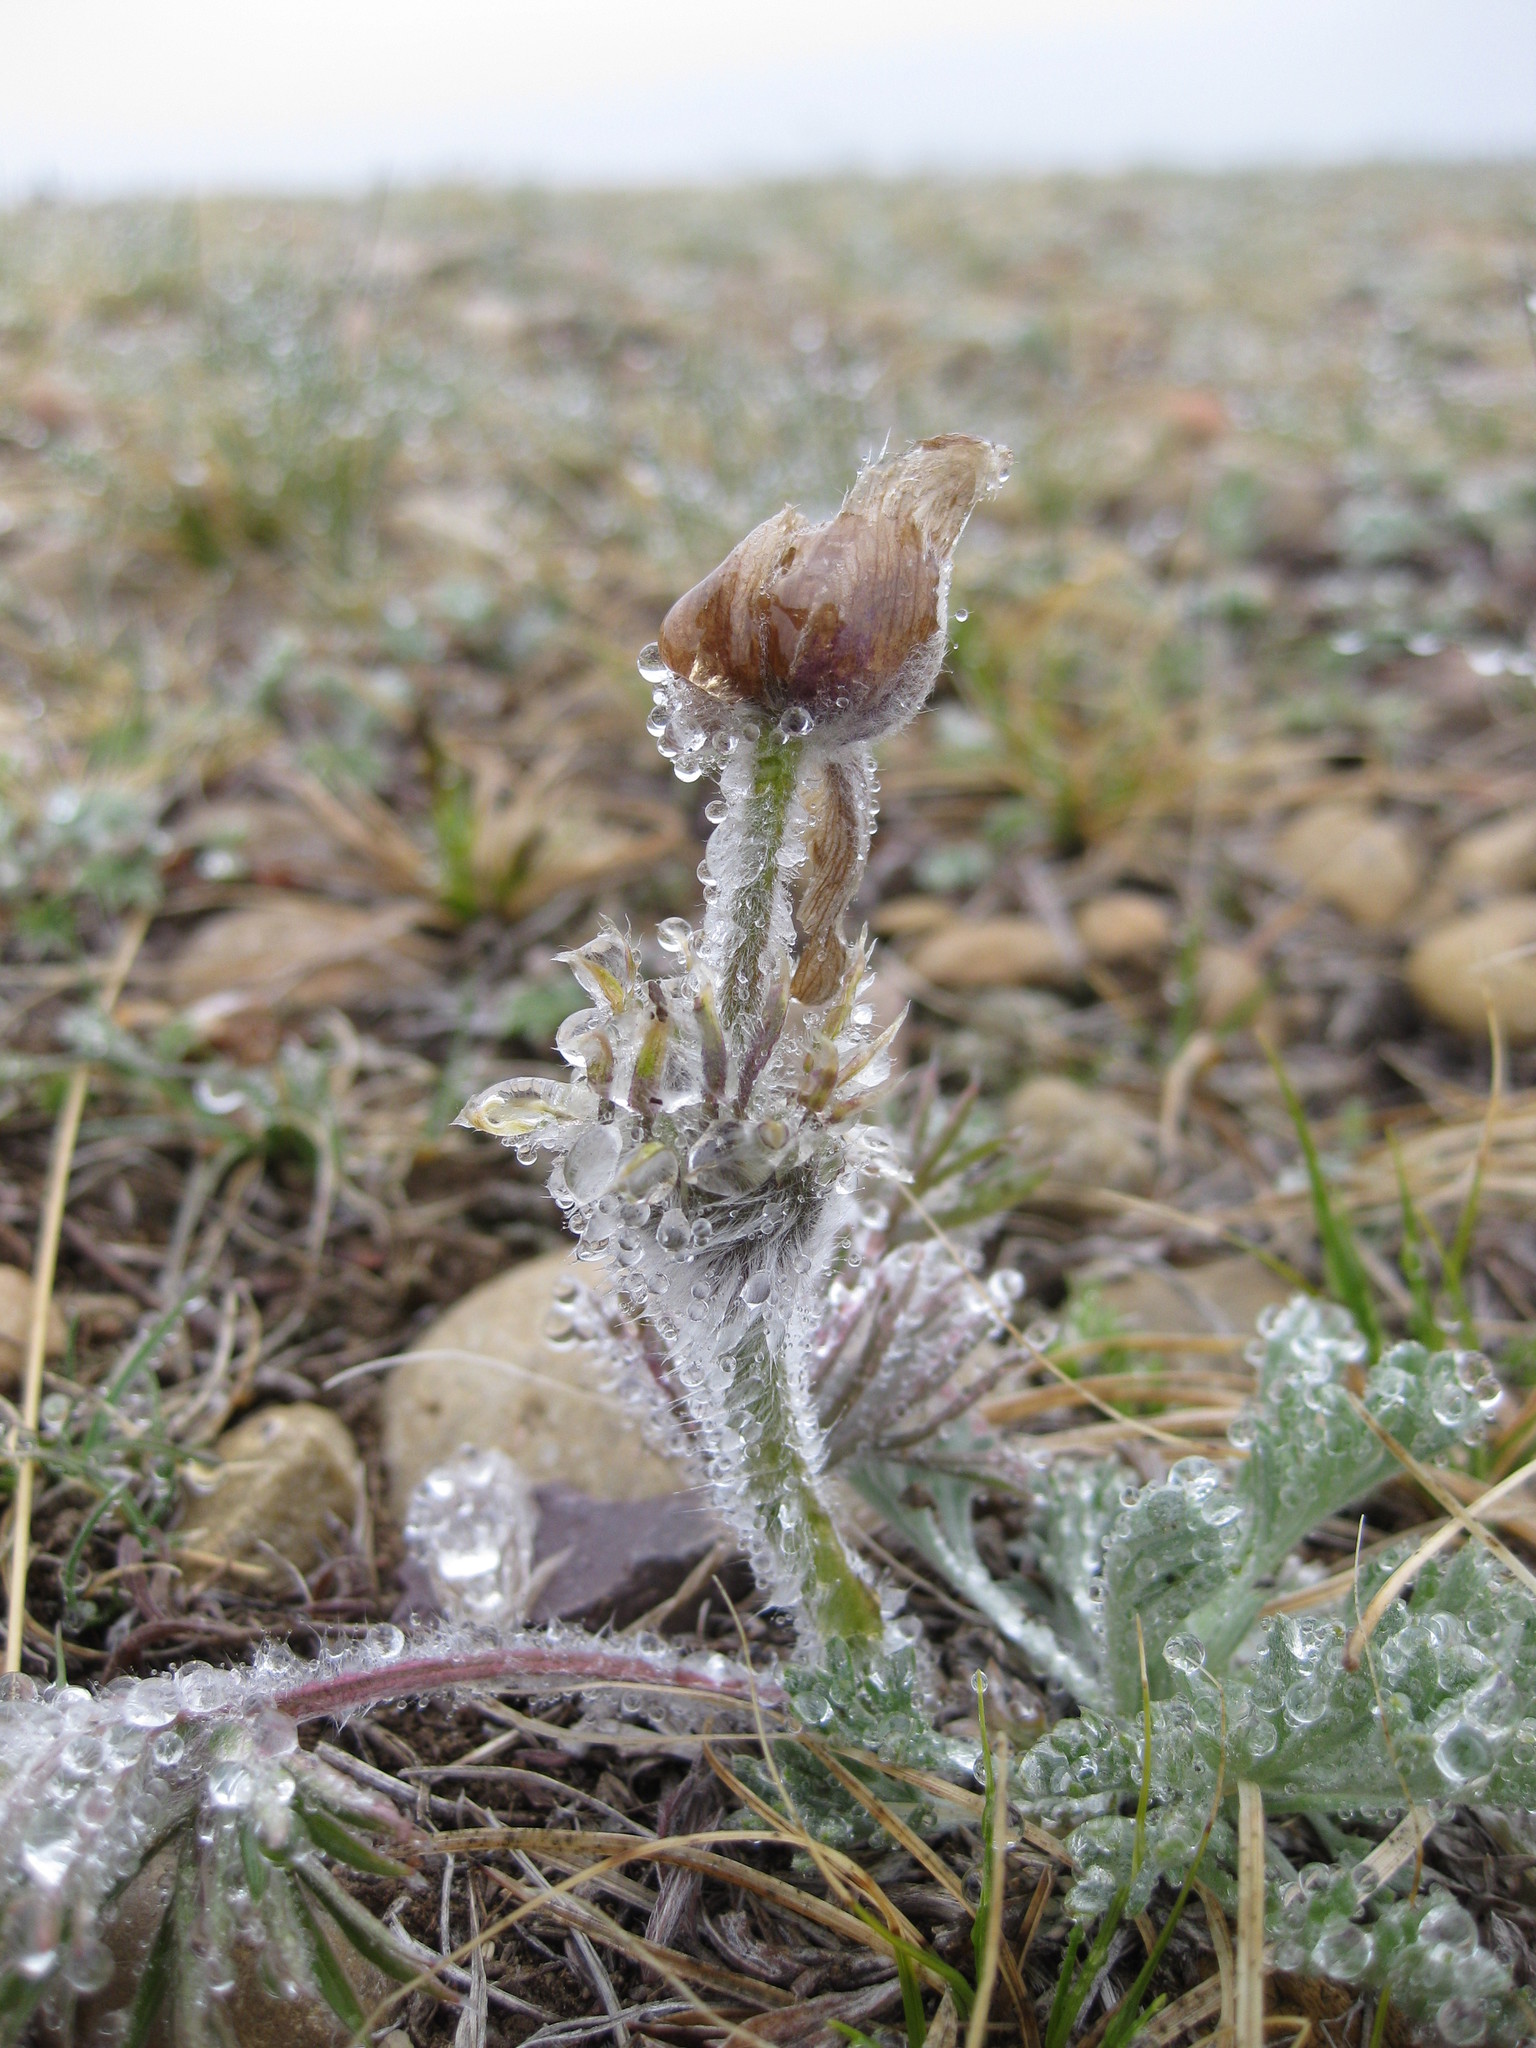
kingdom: Plantae
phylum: Tracheophyta
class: Magnoliopsida
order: Ranunculales
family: Ranunculaceae
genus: Pulsatilla
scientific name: Pulsatilla nuttalliana
